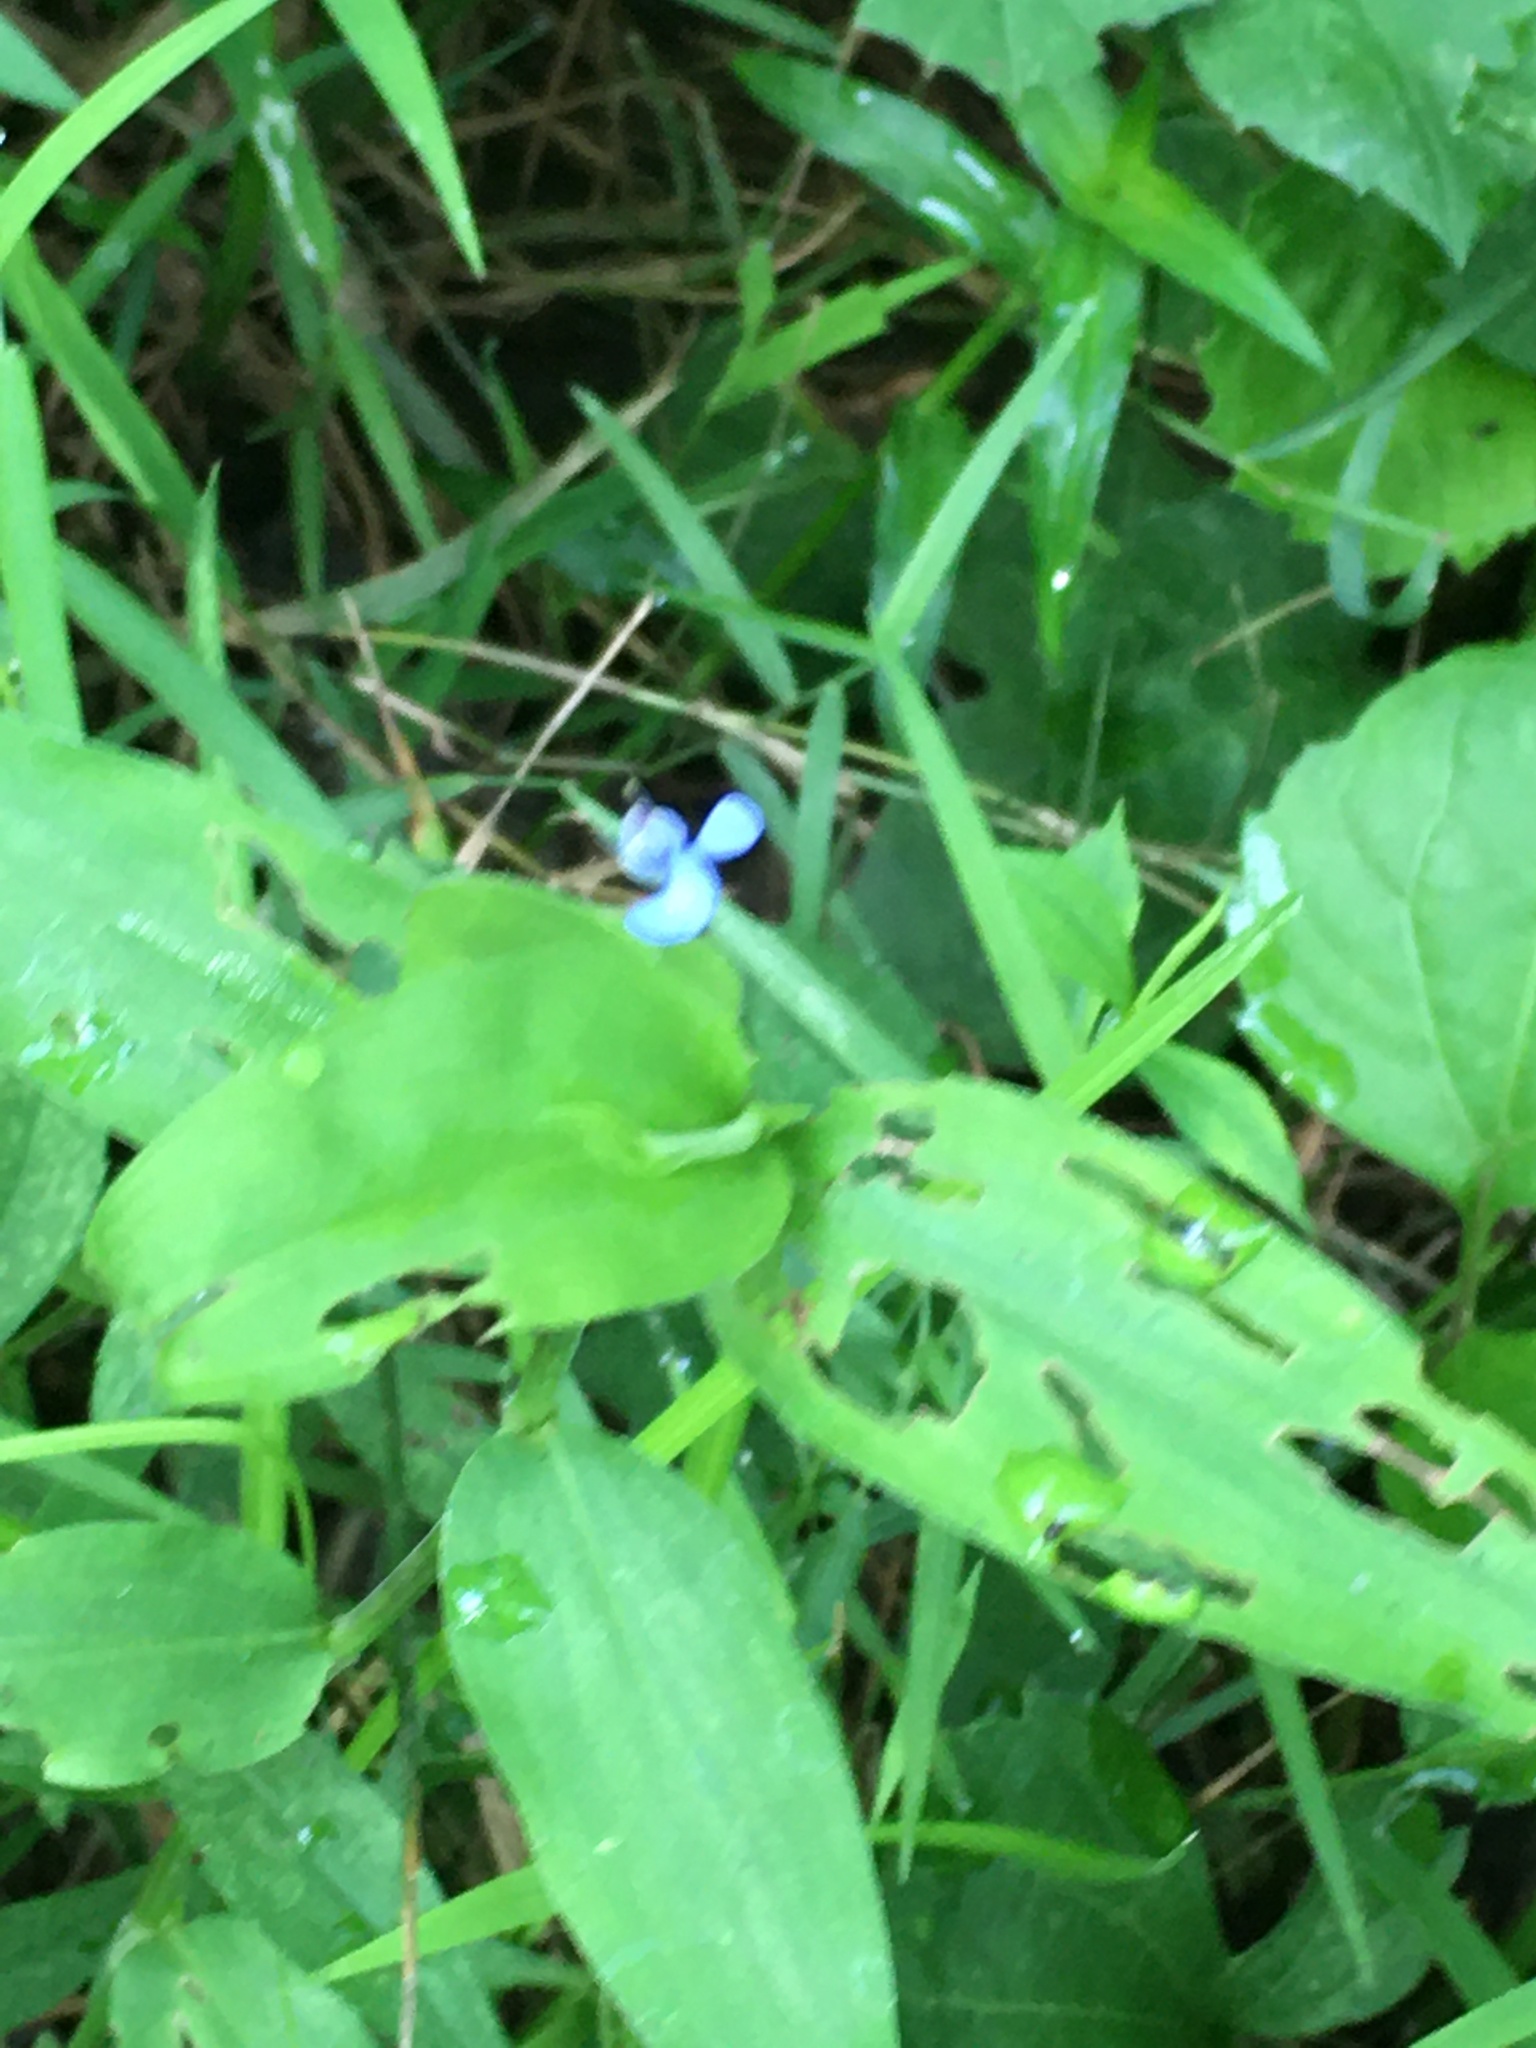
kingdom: Plantae
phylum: Tracheophyta
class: Liliopsida
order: Commelinales
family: Commelinaceae
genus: Commelina
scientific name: Commelina diffusa
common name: Climbing dayflower
